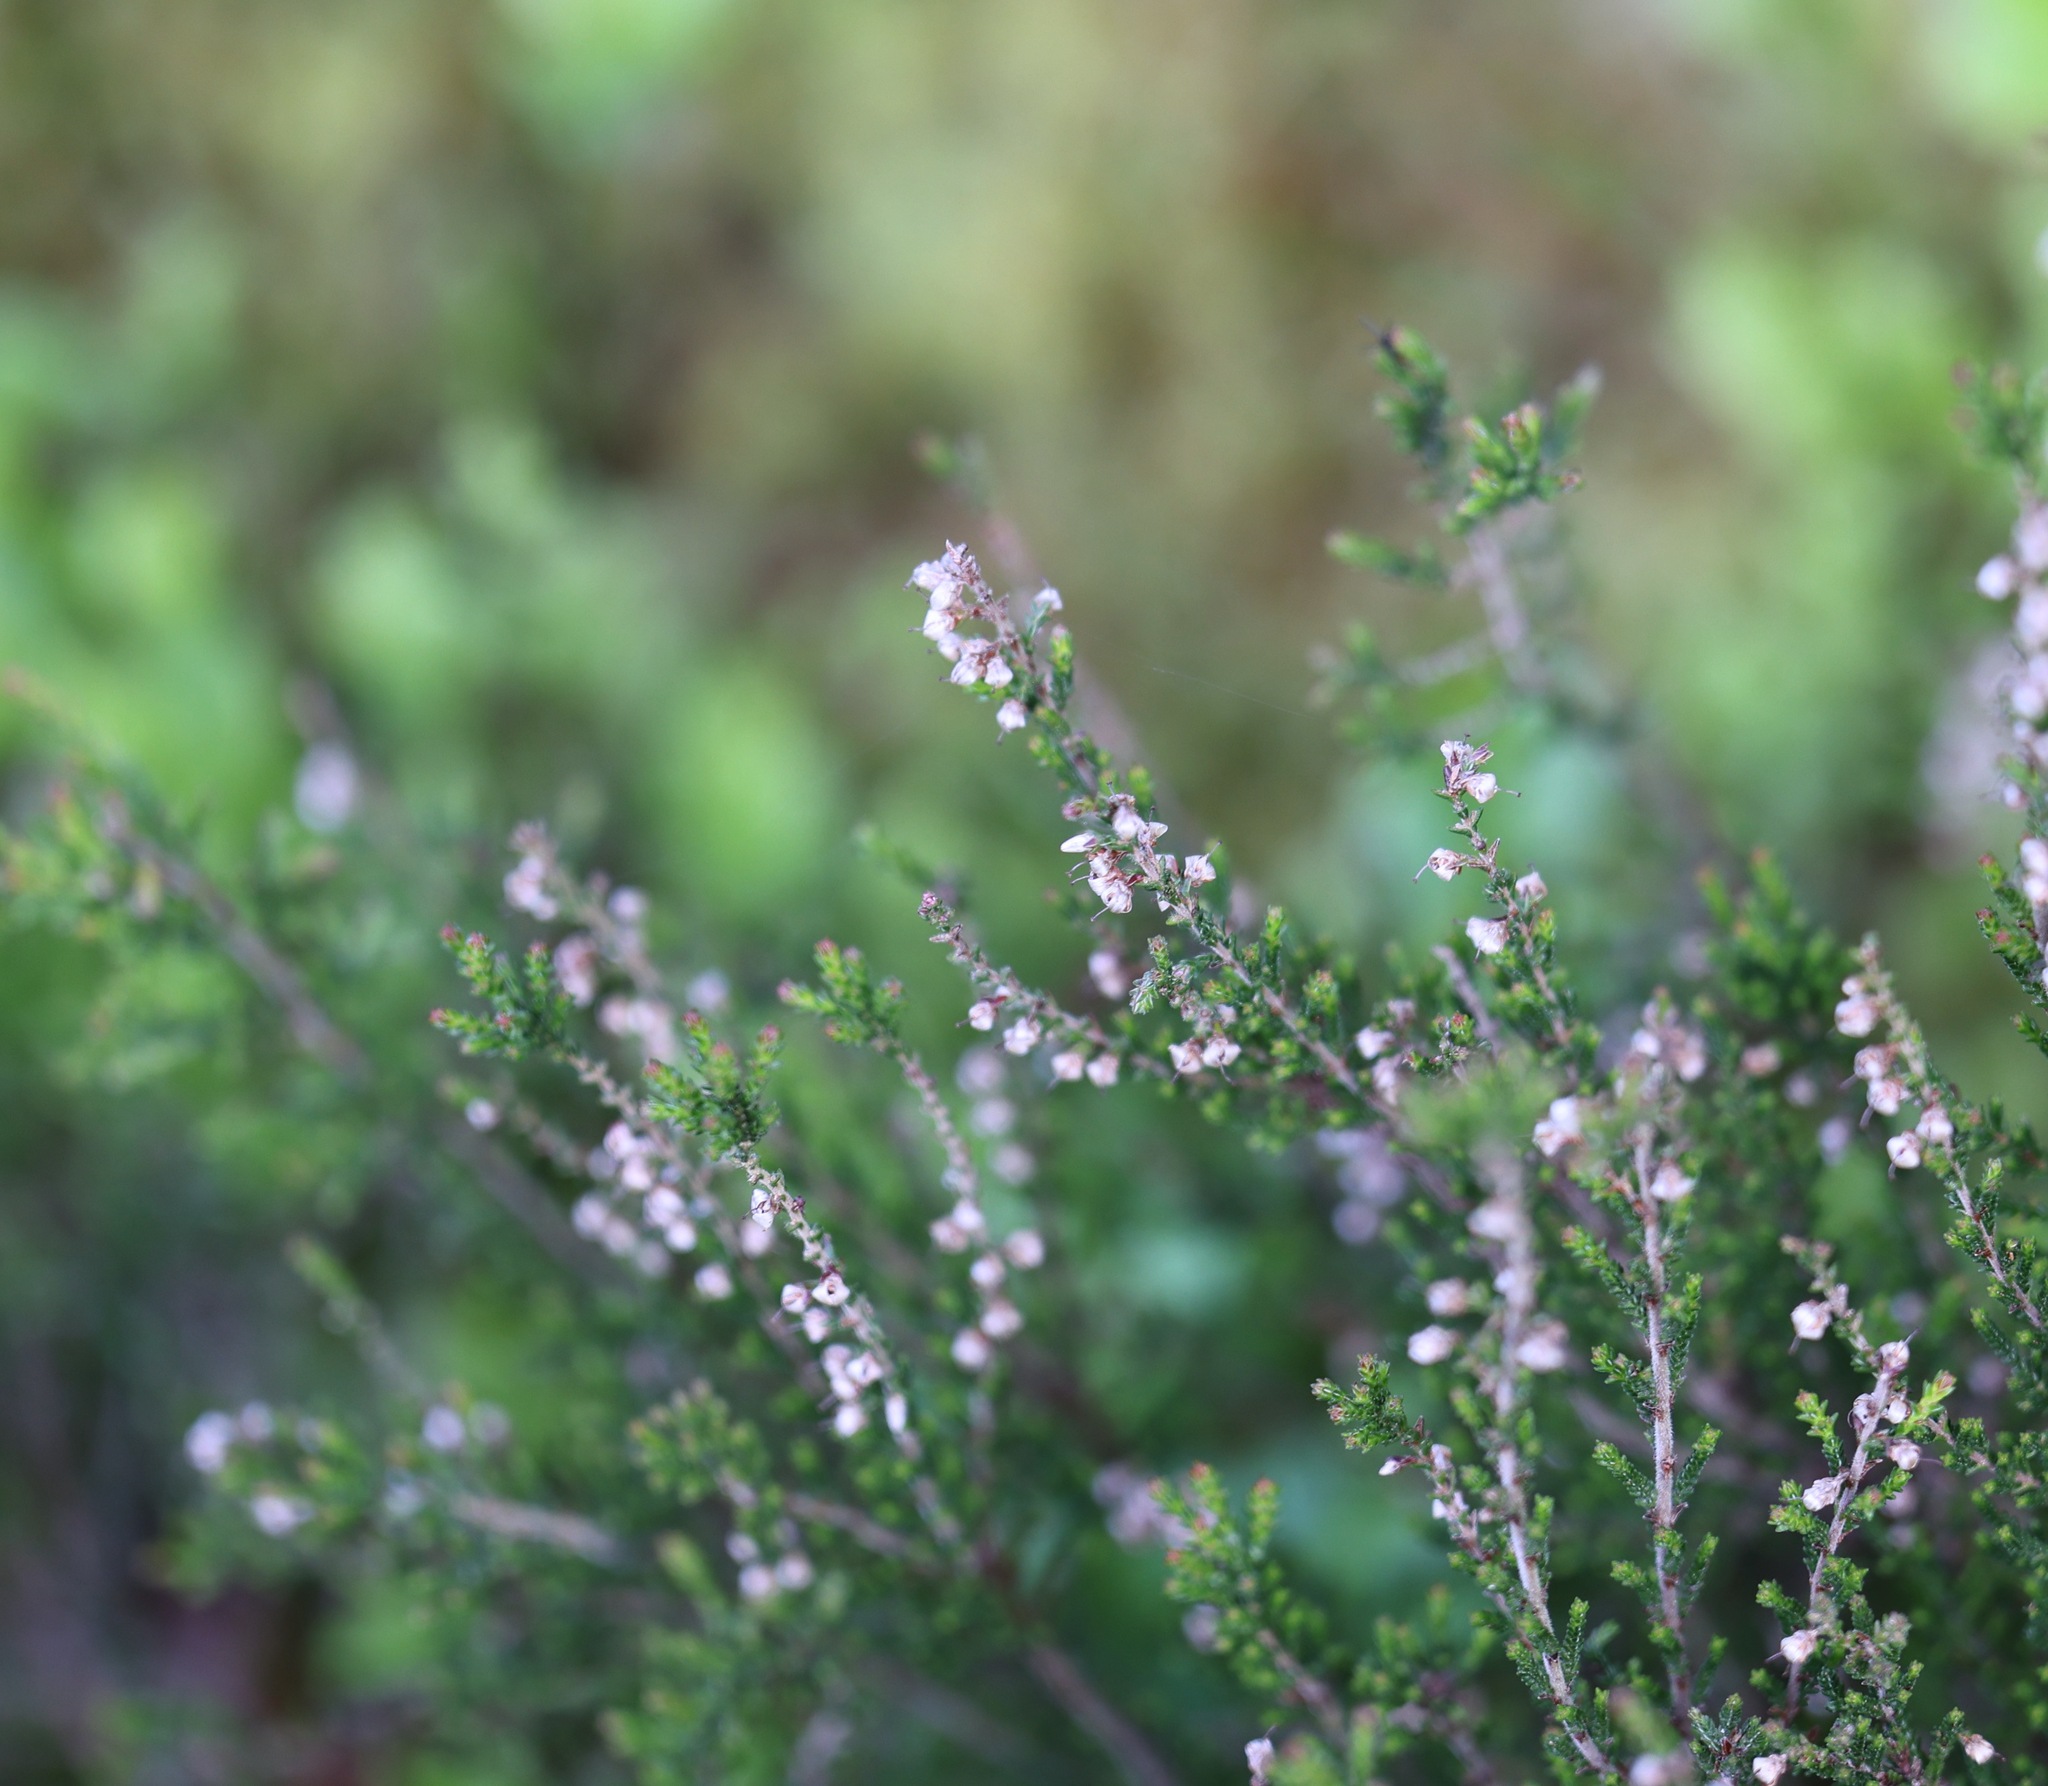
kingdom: Plantae
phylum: Tracheophyta
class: Magnoliopsida
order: Ericales
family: Ericaceae
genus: Calluna
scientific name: Calluna vulgaris
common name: Heather
